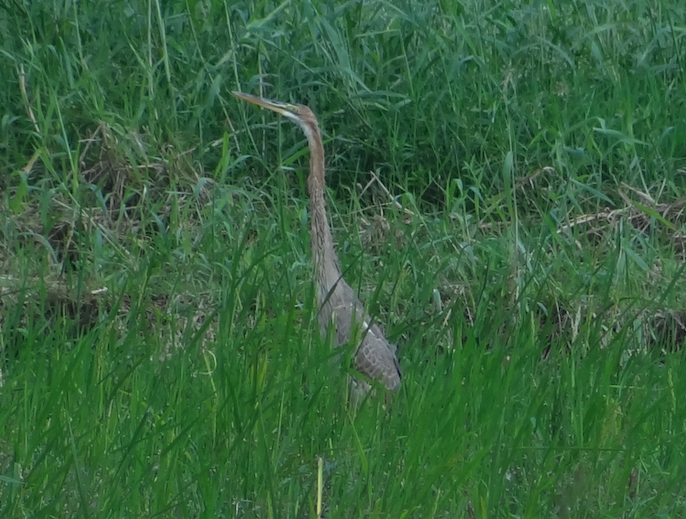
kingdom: Animalia
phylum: Chordata
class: Aves
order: Pelecaniformes
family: Ardeidae
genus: Ardea
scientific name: Ardea purpurea
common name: Purple heron
